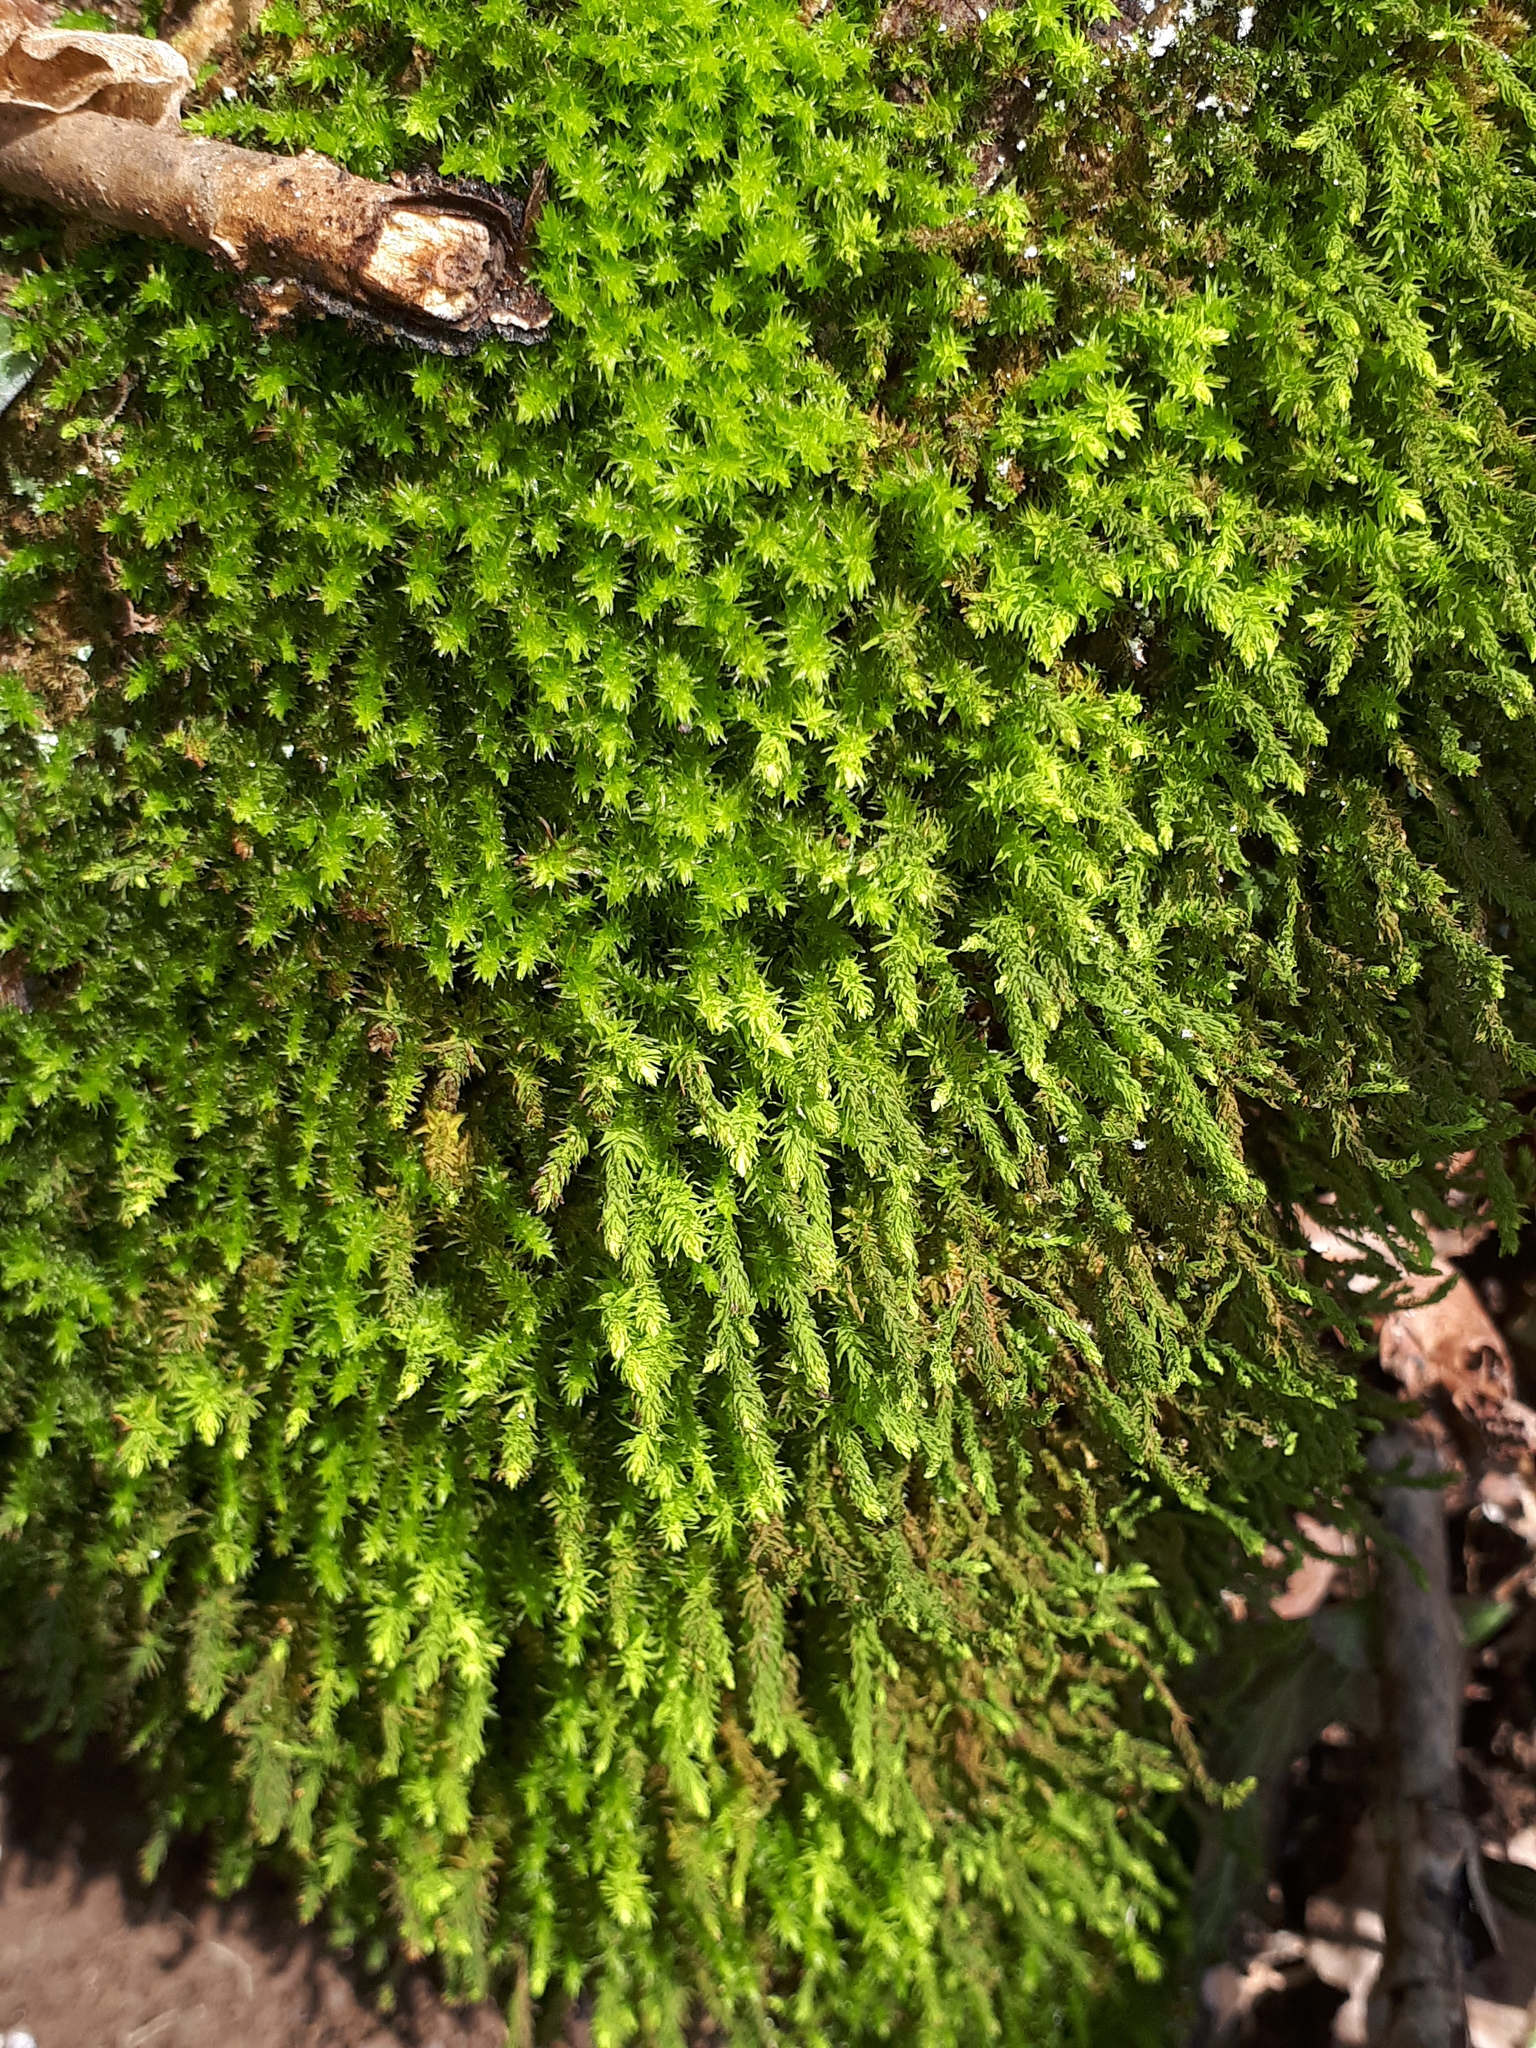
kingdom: Plantae
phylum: Bryophyta
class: Bryopsida
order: Hypnales
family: Anomodontaceae
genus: Anomodon
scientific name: Anomodon viticulosus
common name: Tall anomodon
